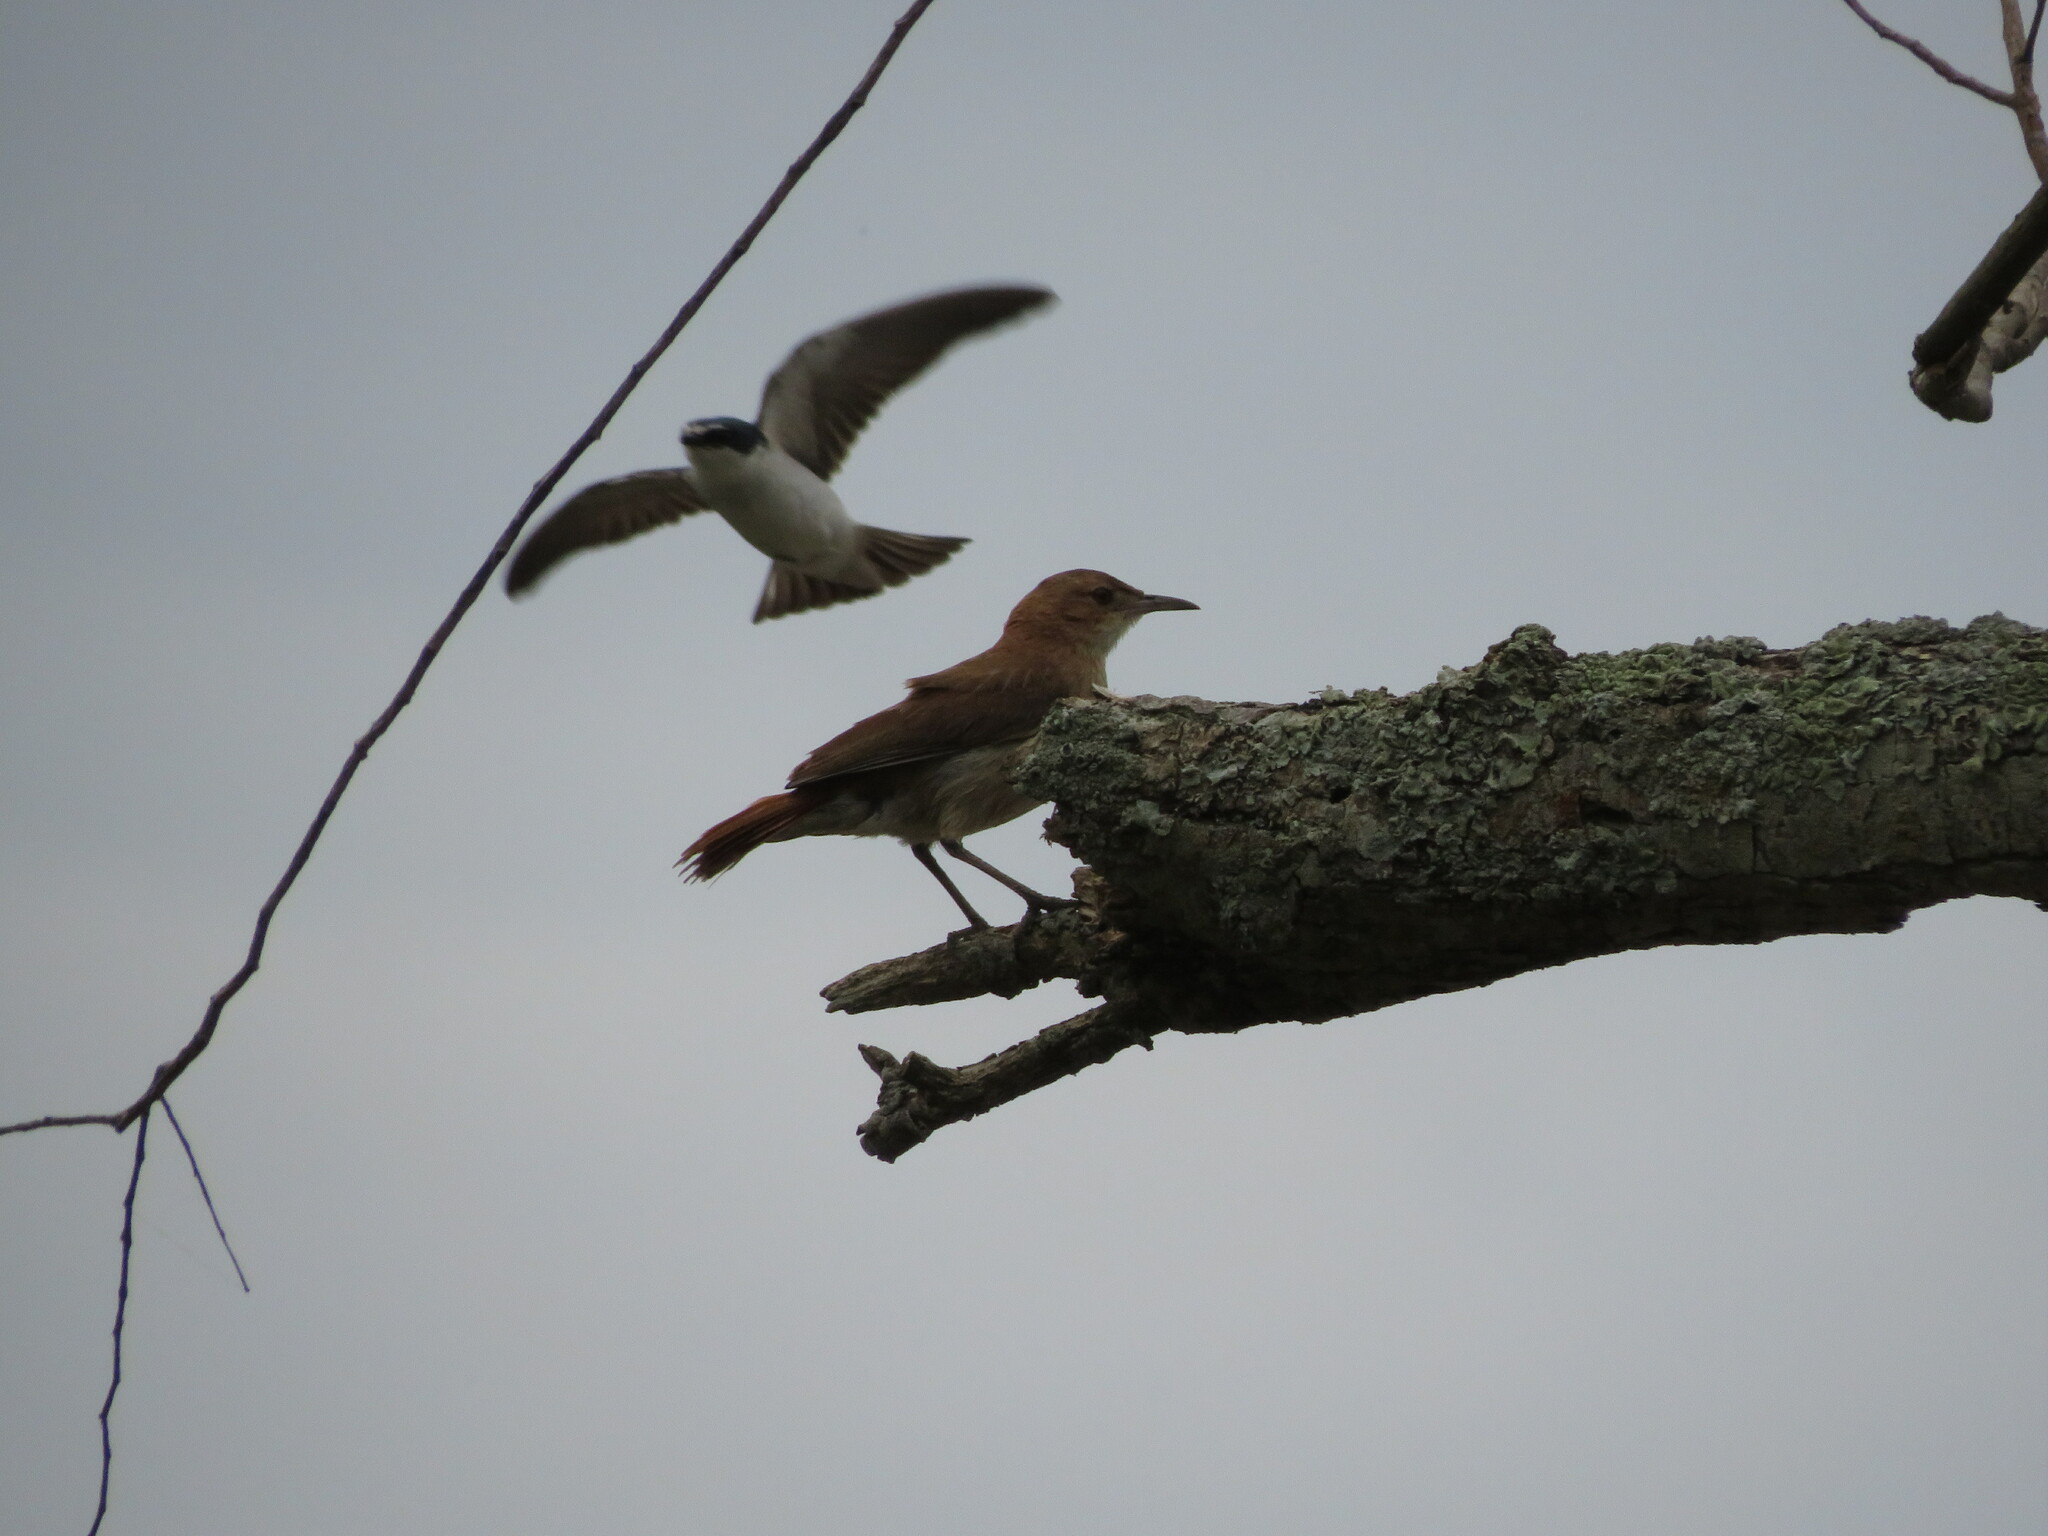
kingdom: Animalia
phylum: Chordata
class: Aves
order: Passeriformes
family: Furnariidae
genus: Furnarius
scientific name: Furnarius rufus
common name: Rufous hornero
